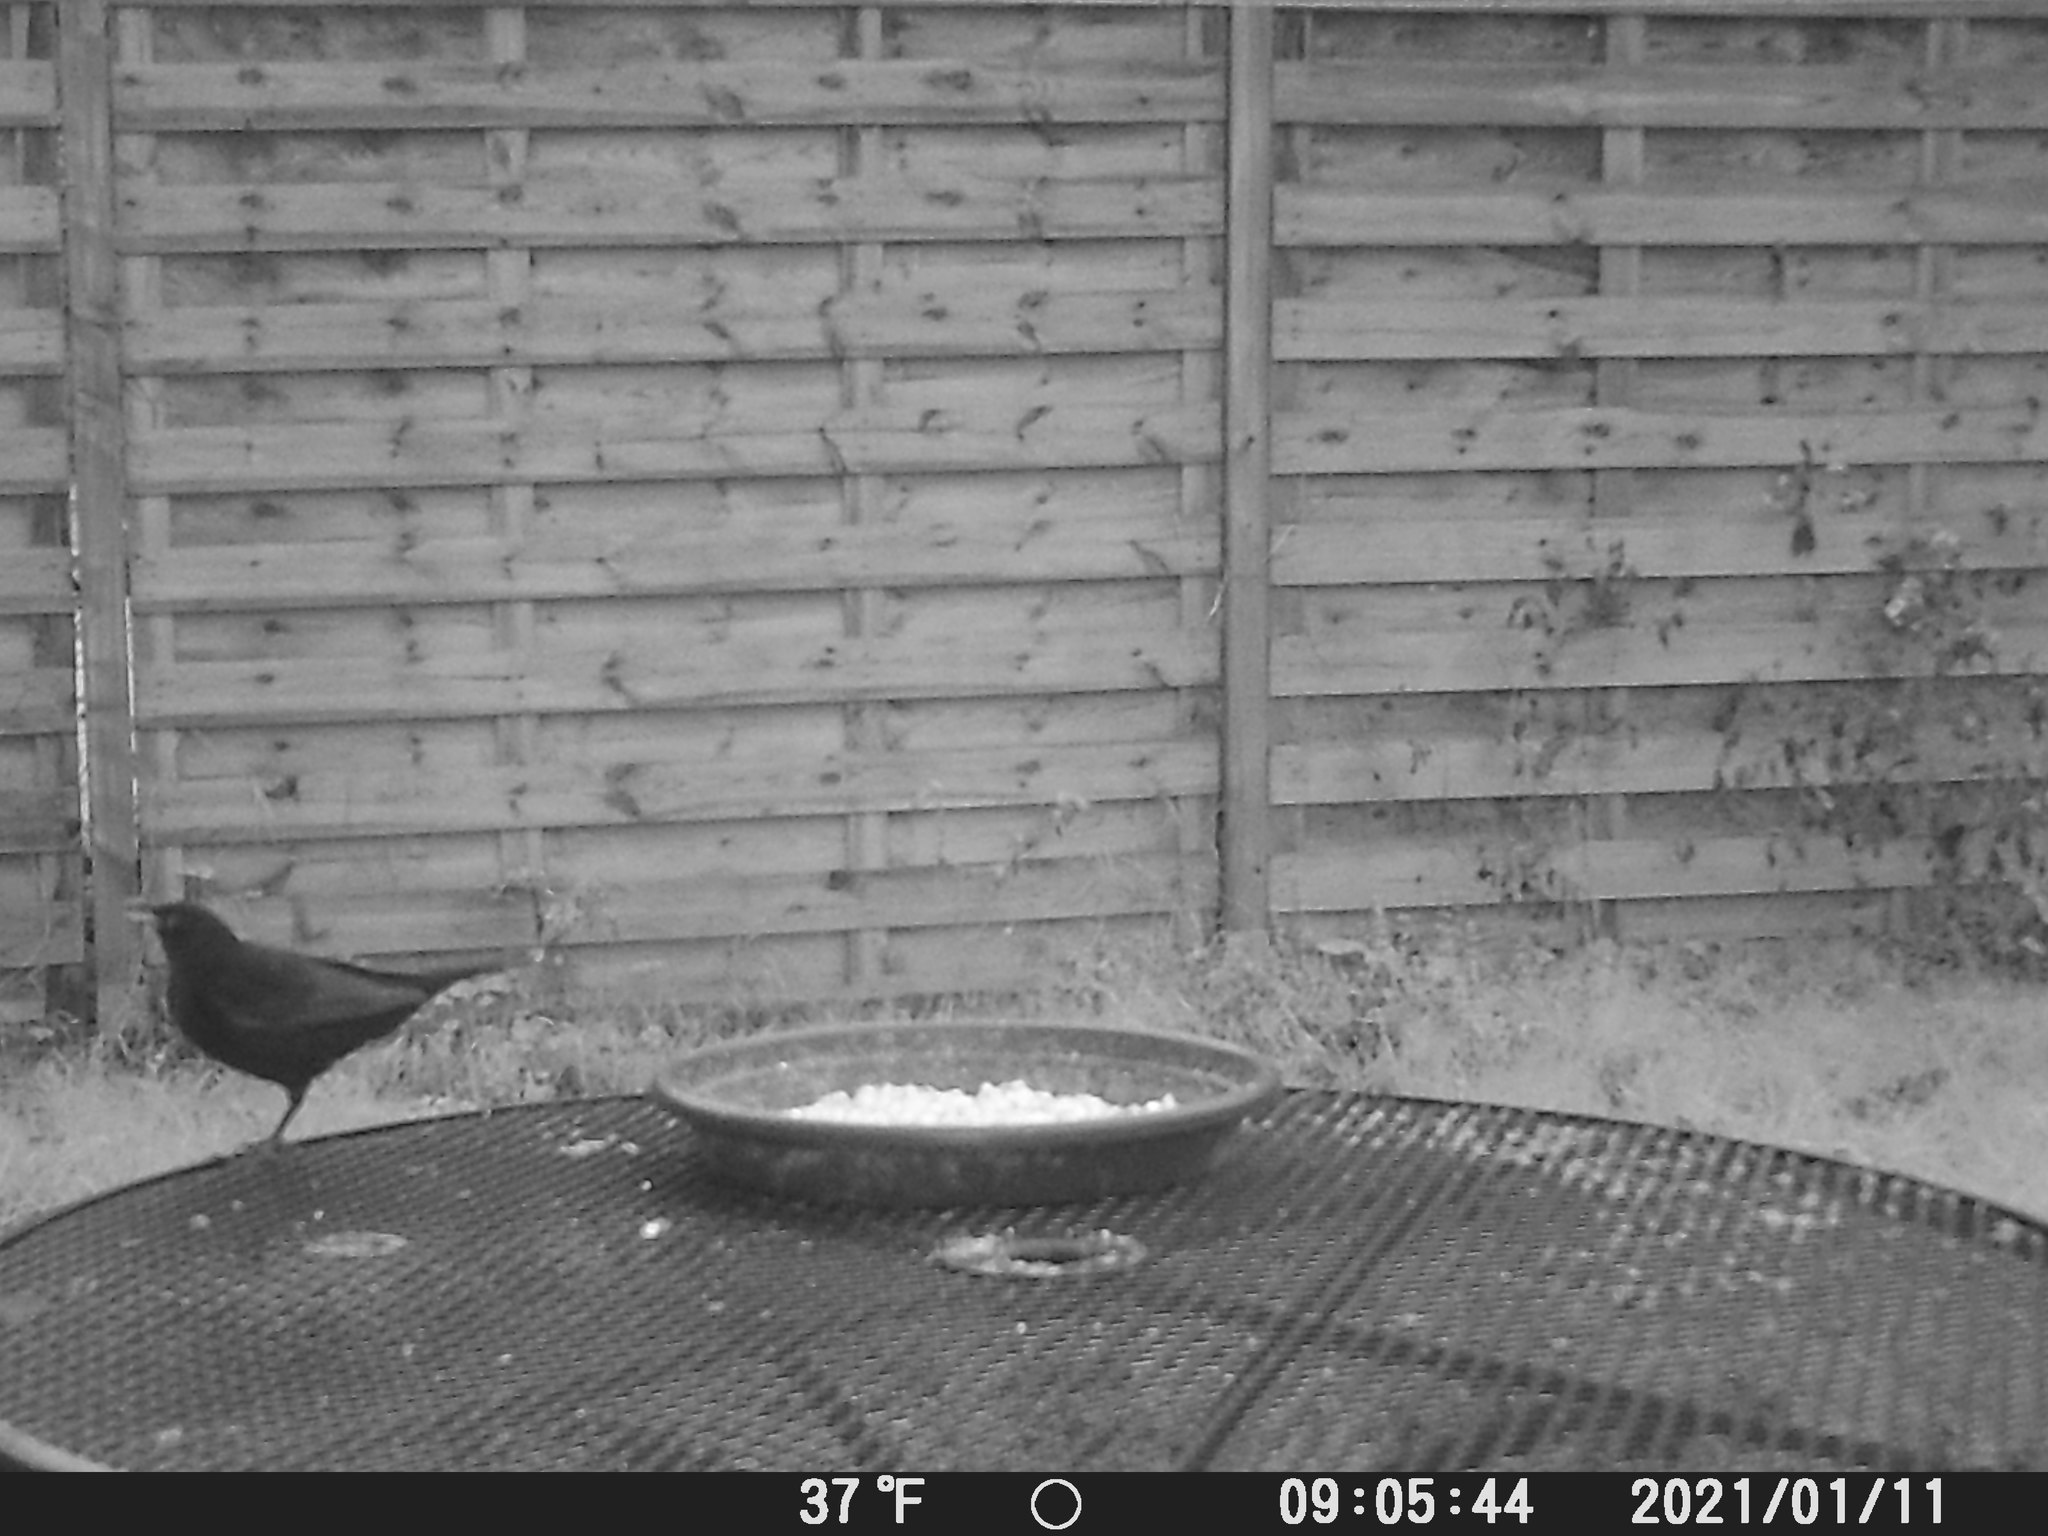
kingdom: Animalia
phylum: Chordata
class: Aves
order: Passeriformes
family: Turdidae
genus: Turdus
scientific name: Turdus merula
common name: Common blackbird
